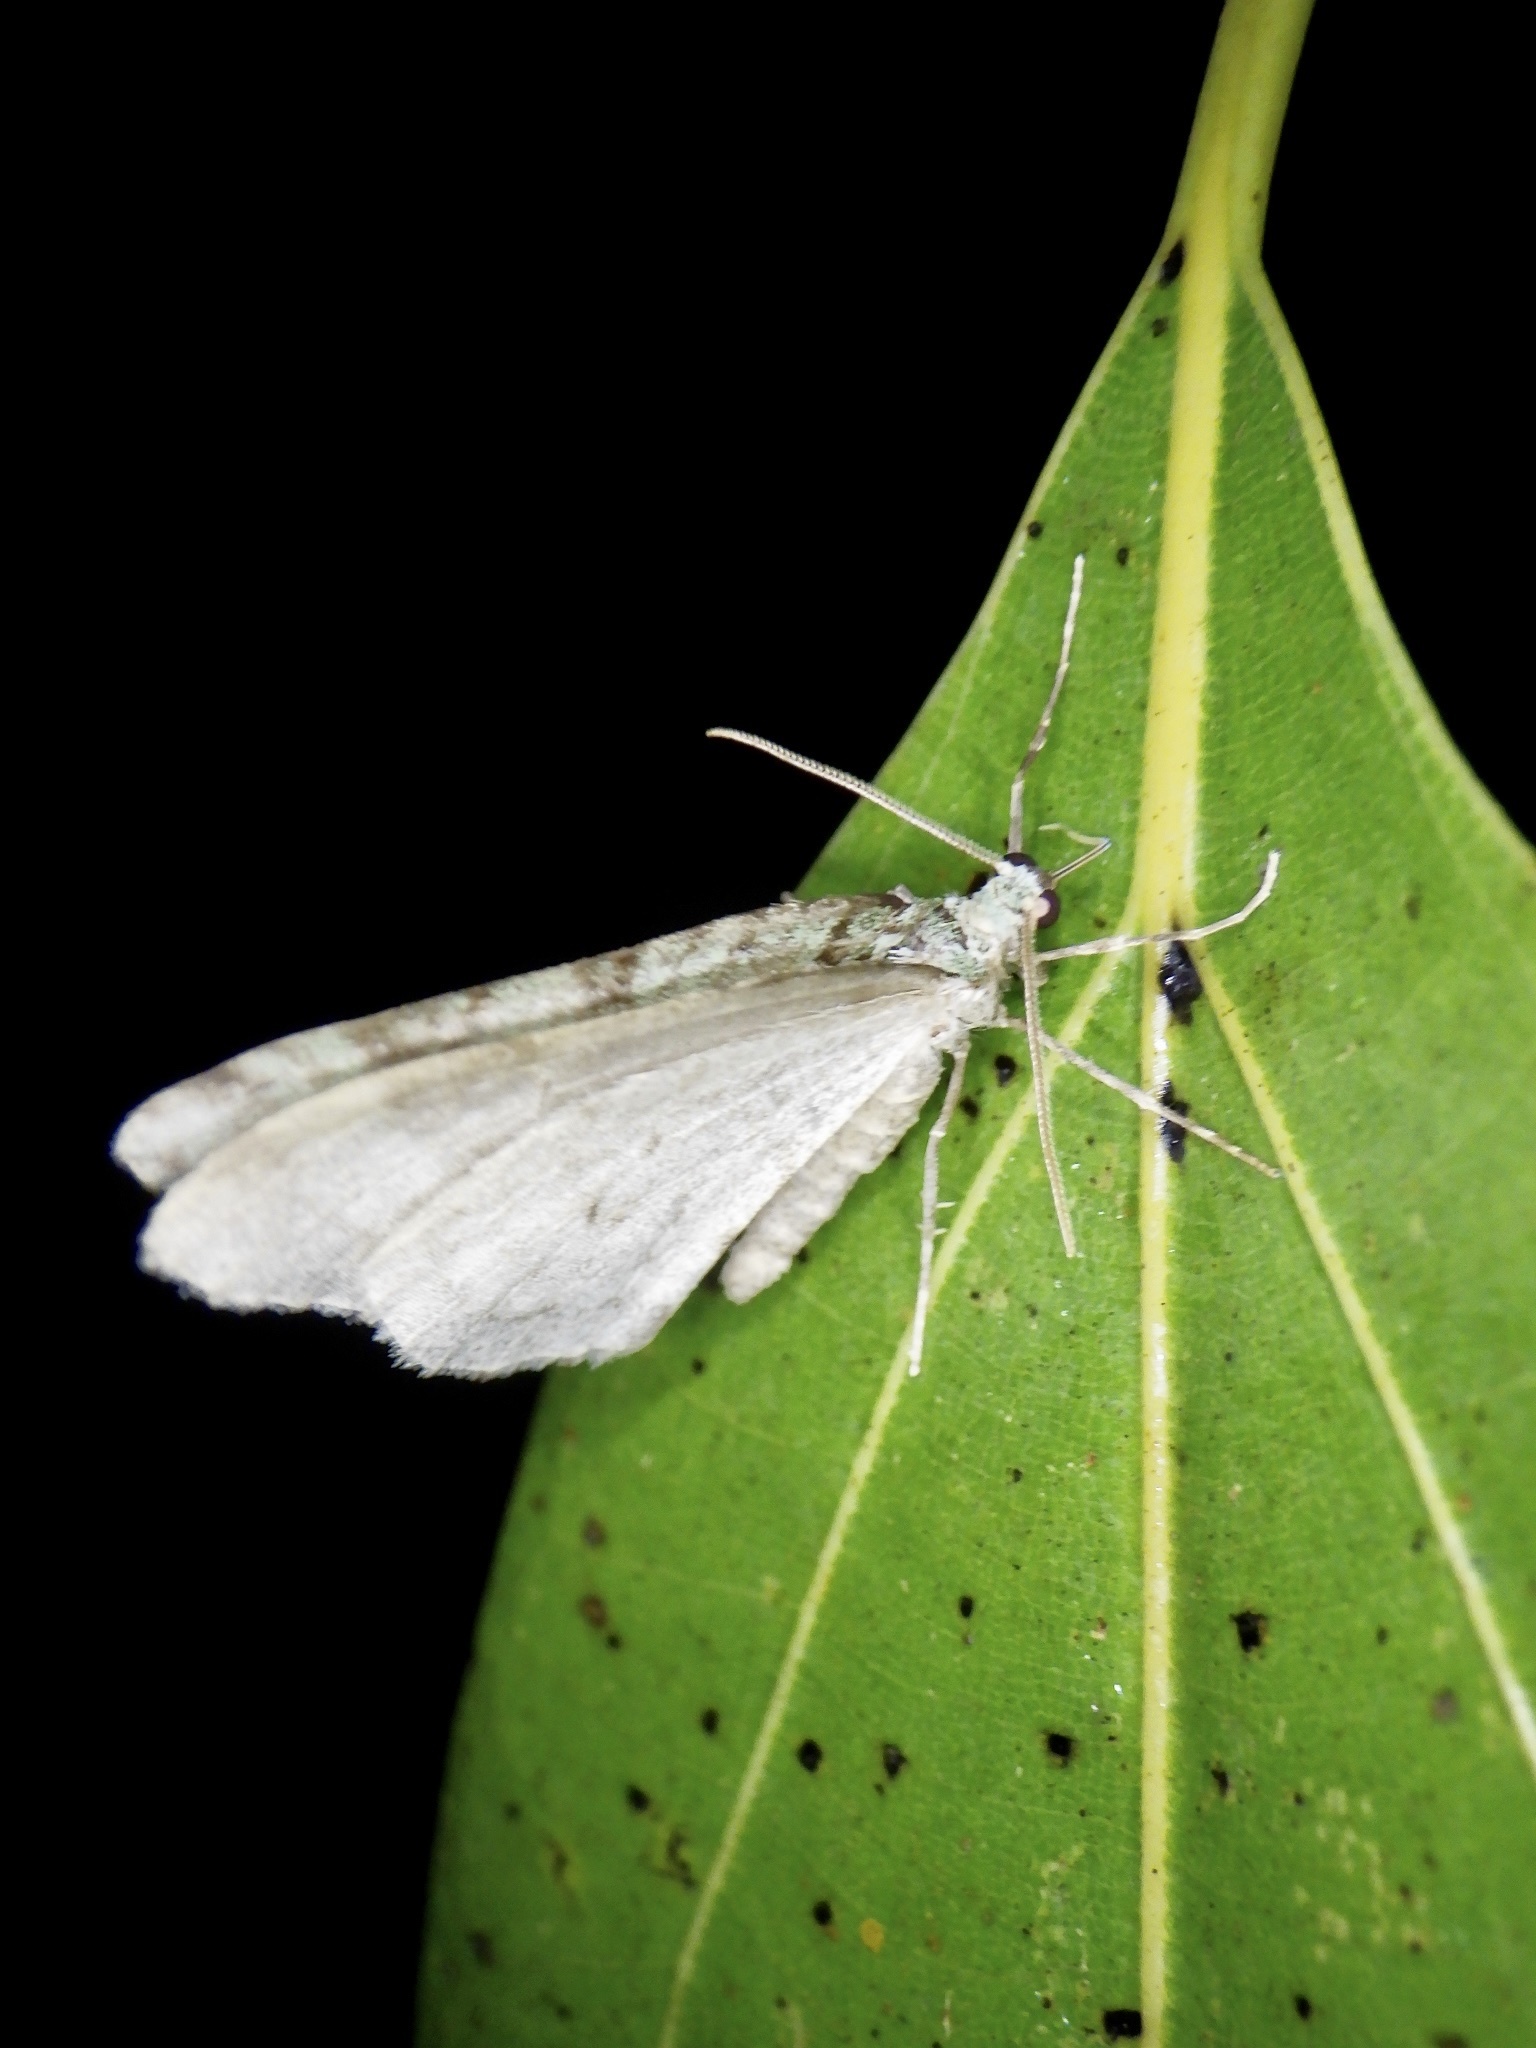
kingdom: Animalia
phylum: Arthropoda
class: Insecta
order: Lepidoptera
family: Geometridae
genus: Epirrita
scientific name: Epirrita viridipurpurescens
